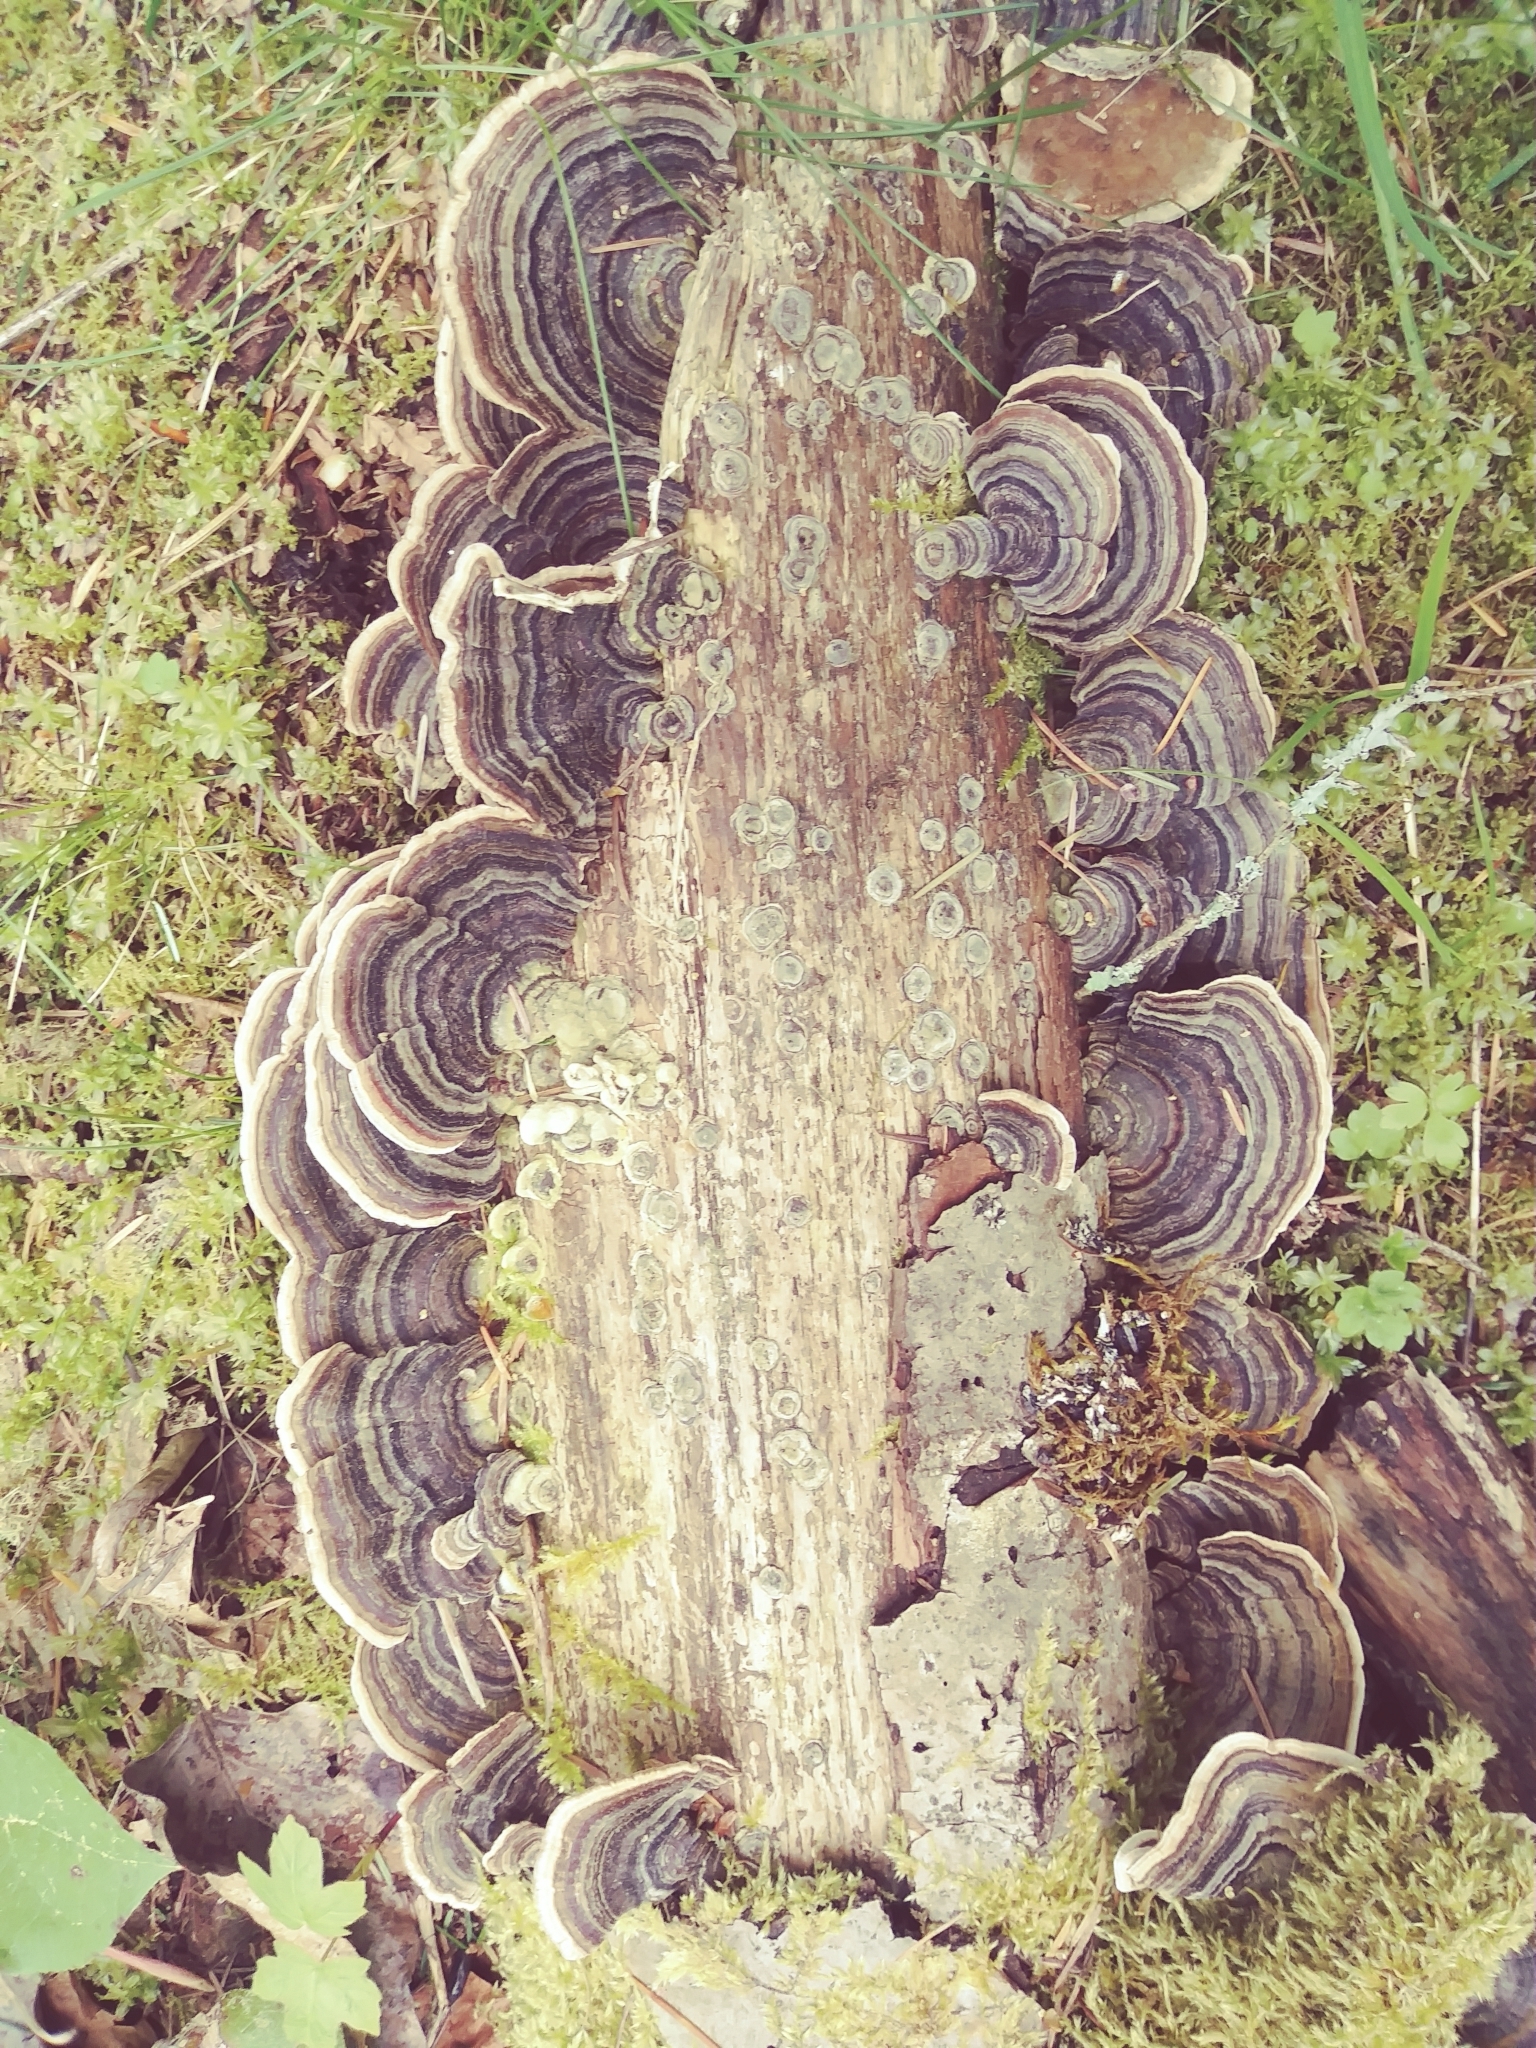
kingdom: Fungi
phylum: Basidiomycota
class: Agaricomycetes
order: Polyporales
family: Polyporaceae
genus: Trametes
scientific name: Trametes versicolor
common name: Turkeytail
